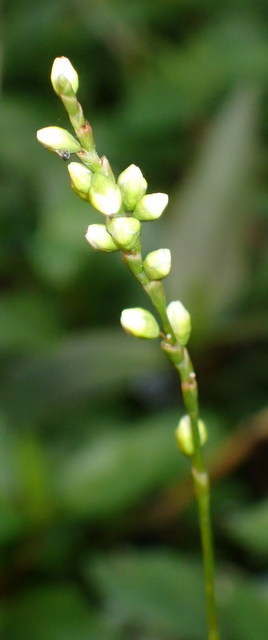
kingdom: Plantae
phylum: Tracheophyta
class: Magnoliopsida
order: Caryophyllales
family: Polygonaceae
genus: Persicaria
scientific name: Persicaria punctata
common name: Dotted smartweed
